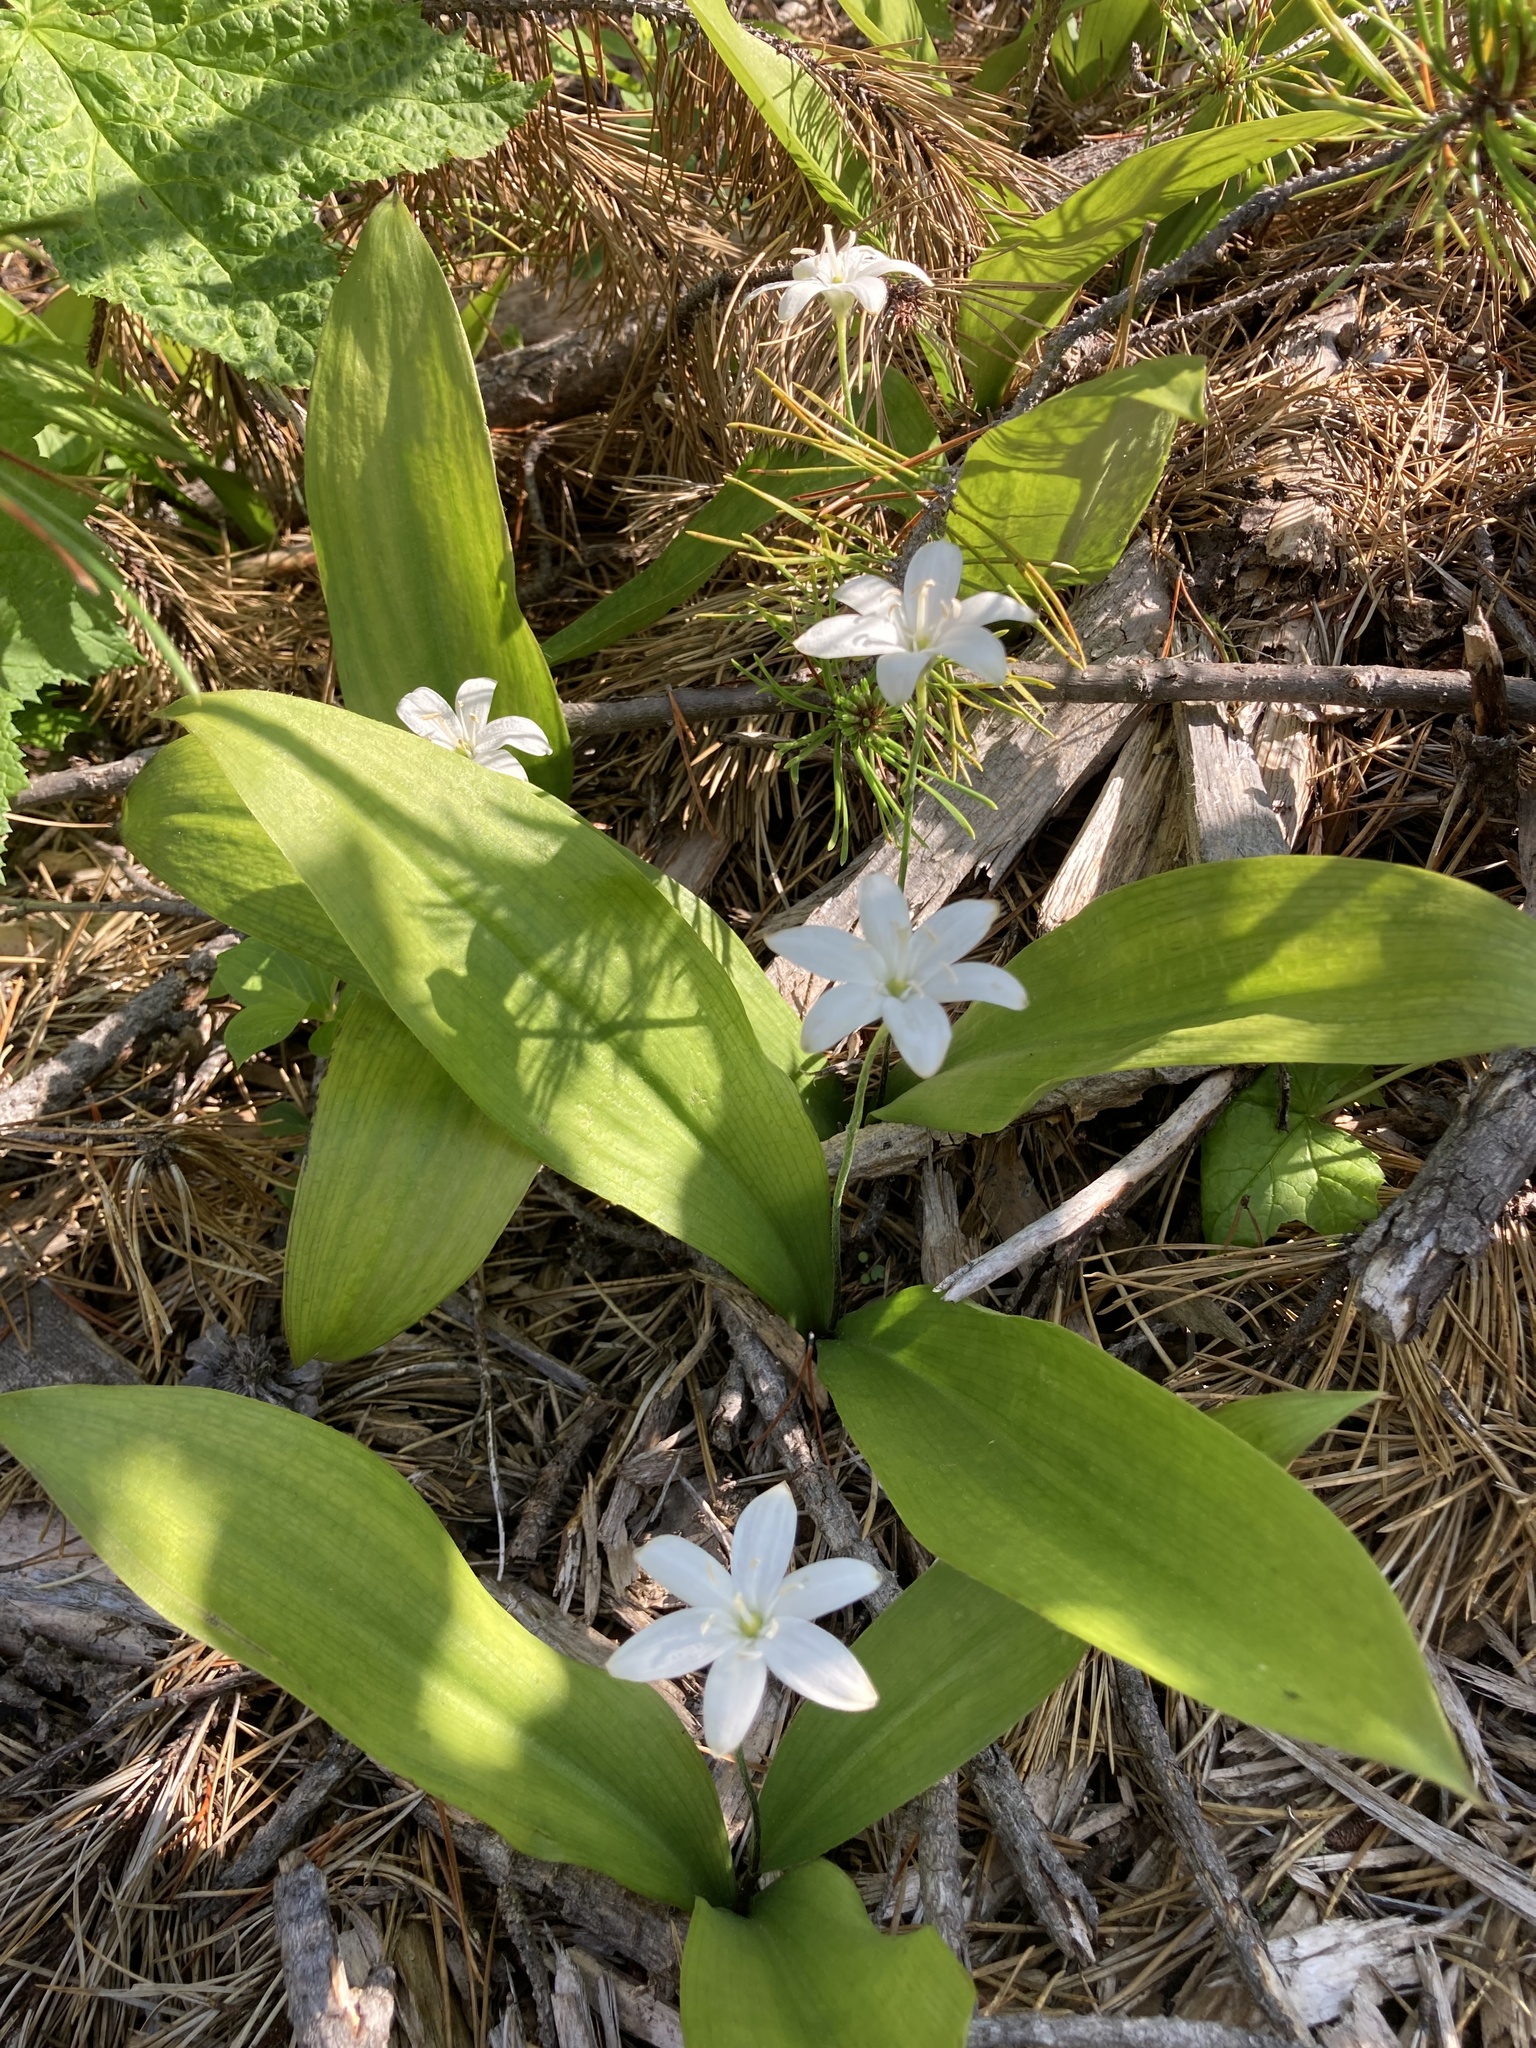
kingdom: Plantae
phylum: Tracheophyta
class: Liliopsida
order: Liliales
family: Liliaceae
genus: Clintonia
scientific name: Clintonia uniflora
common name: Queen's cup
